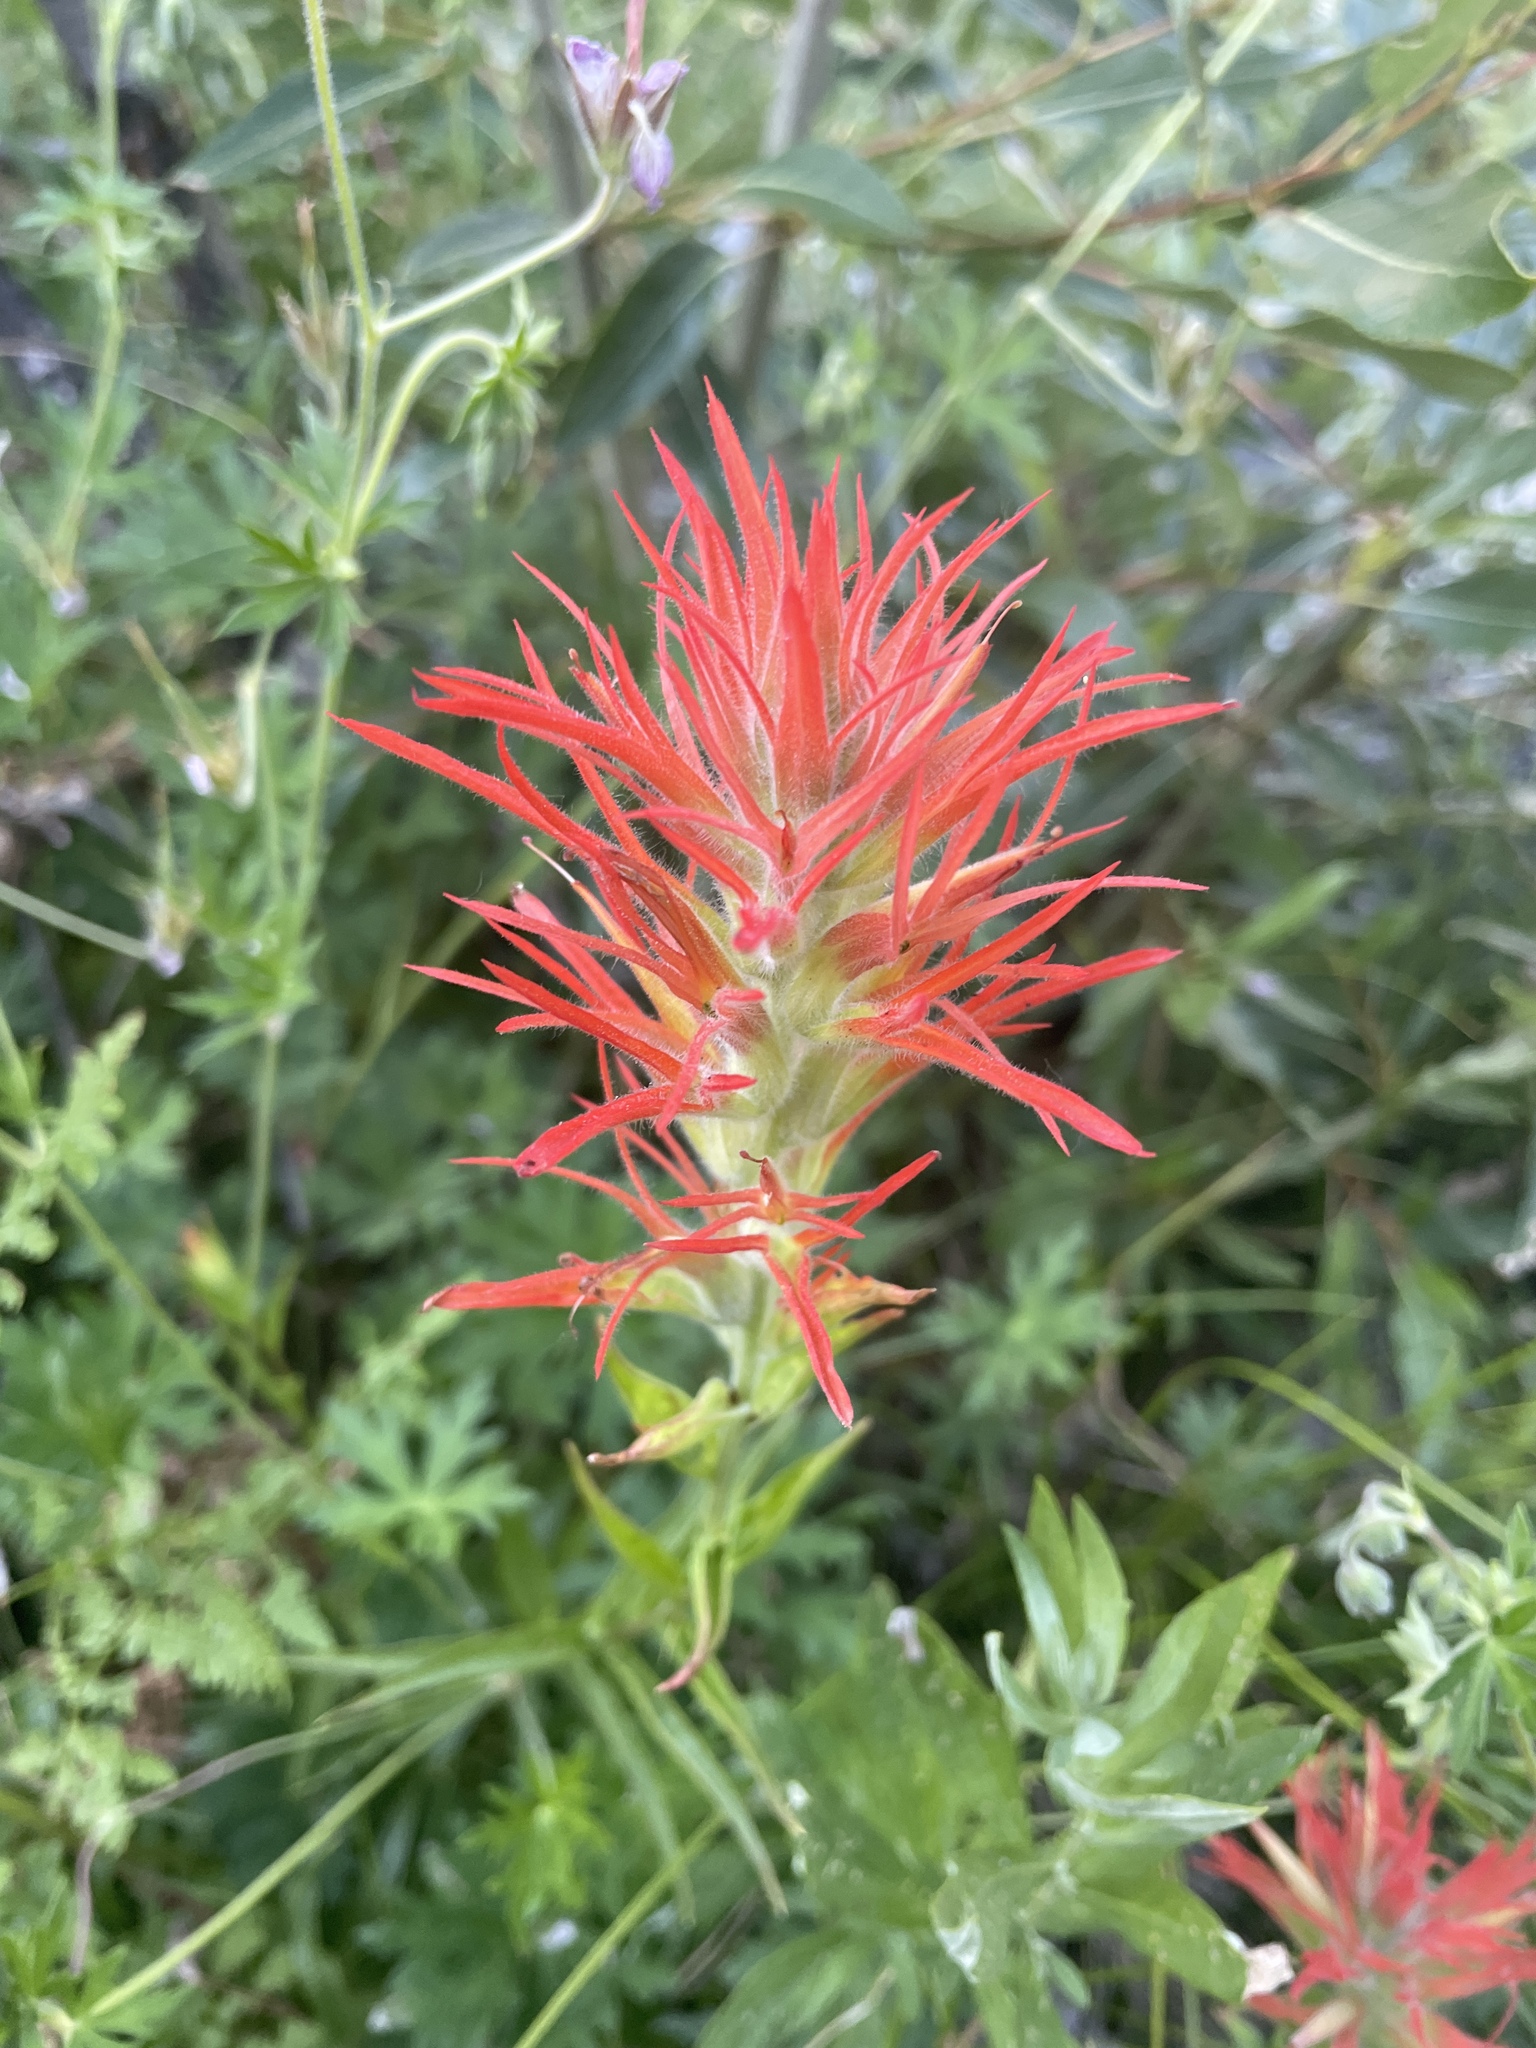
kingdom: Plantae
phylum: Tracheophyta
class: Magnoliopsida
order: Lamiales
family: Orobanchaceae
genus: Castilleja
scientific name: Castilleja miniata
